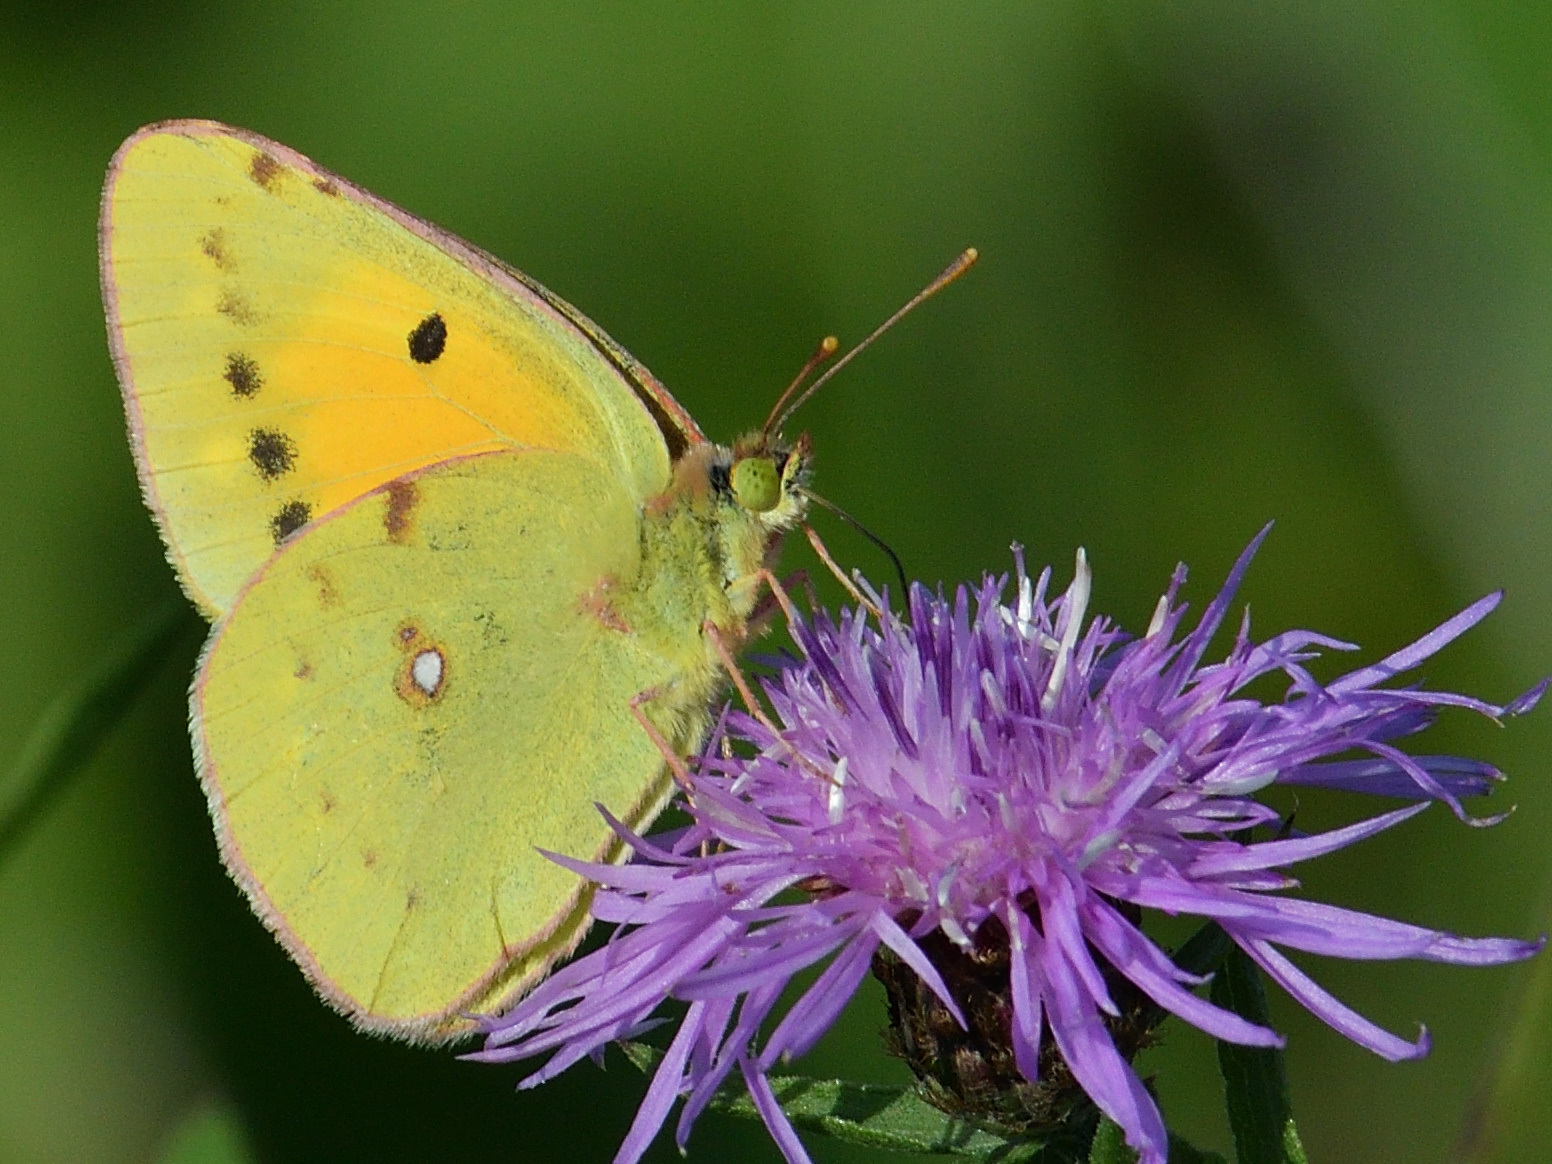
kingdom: Animalia
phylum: Arthropoda
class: Insecta
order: Lepidoptera
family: Pieridae
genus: Colias
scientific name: Colias croceus
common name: Clouded yellow
